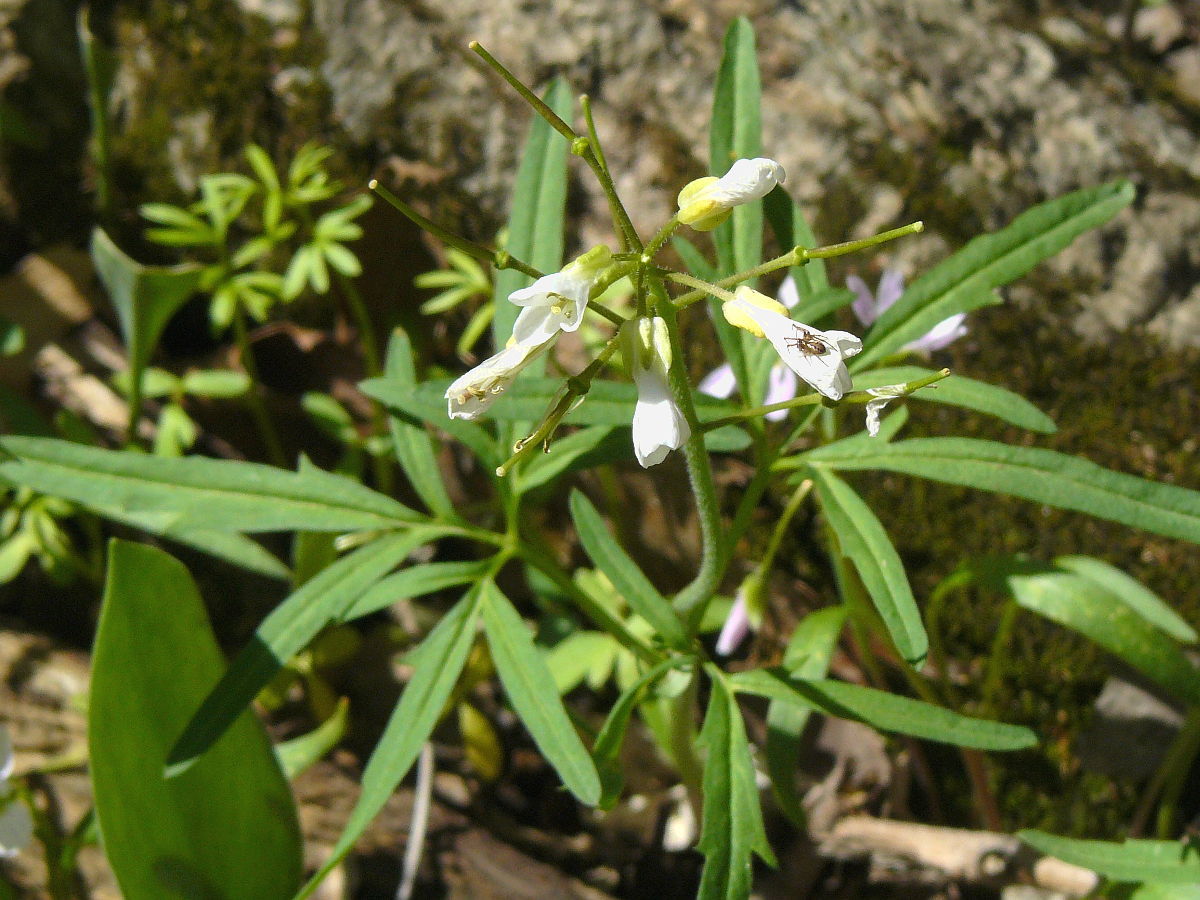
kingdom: Plantae
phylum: Tracheophyta
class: Magnoliopsida
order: Brassicales
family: Brassicaceae
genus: Cardamine
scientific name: Cardamine concatenata
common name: Cut-leaf toothcup
